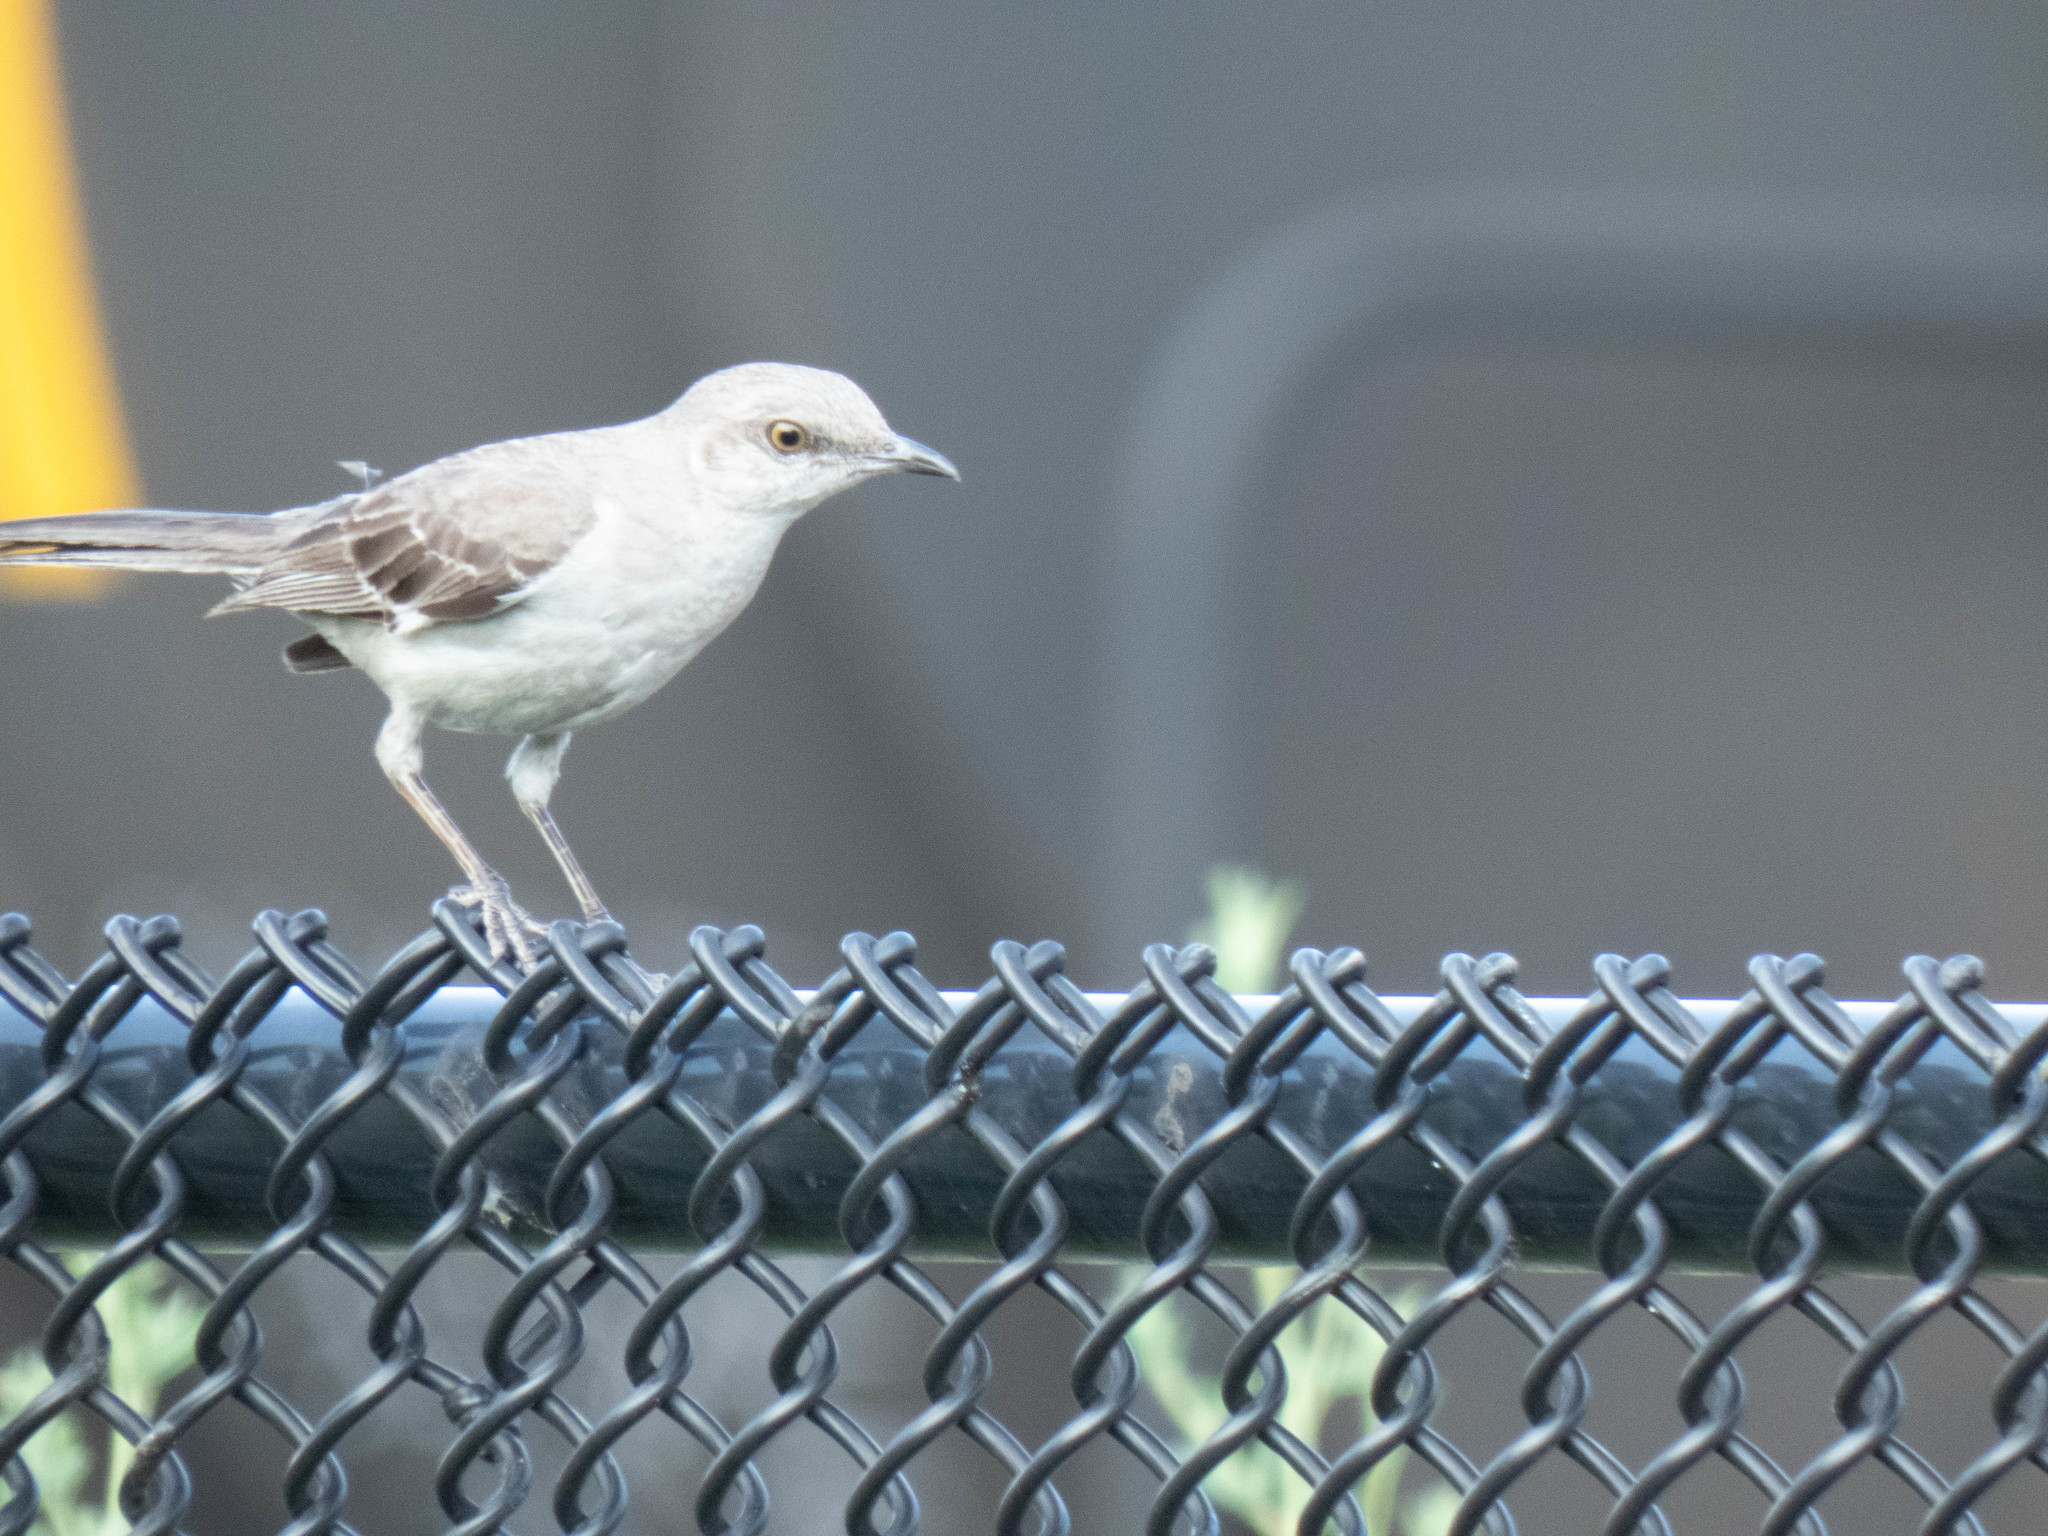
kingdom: Animalia
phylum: Chordata
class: Aves
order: Passeriformes
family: Mimidae
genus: Mimus
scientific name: Mimus polyglottos
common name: Northern mockingbird
